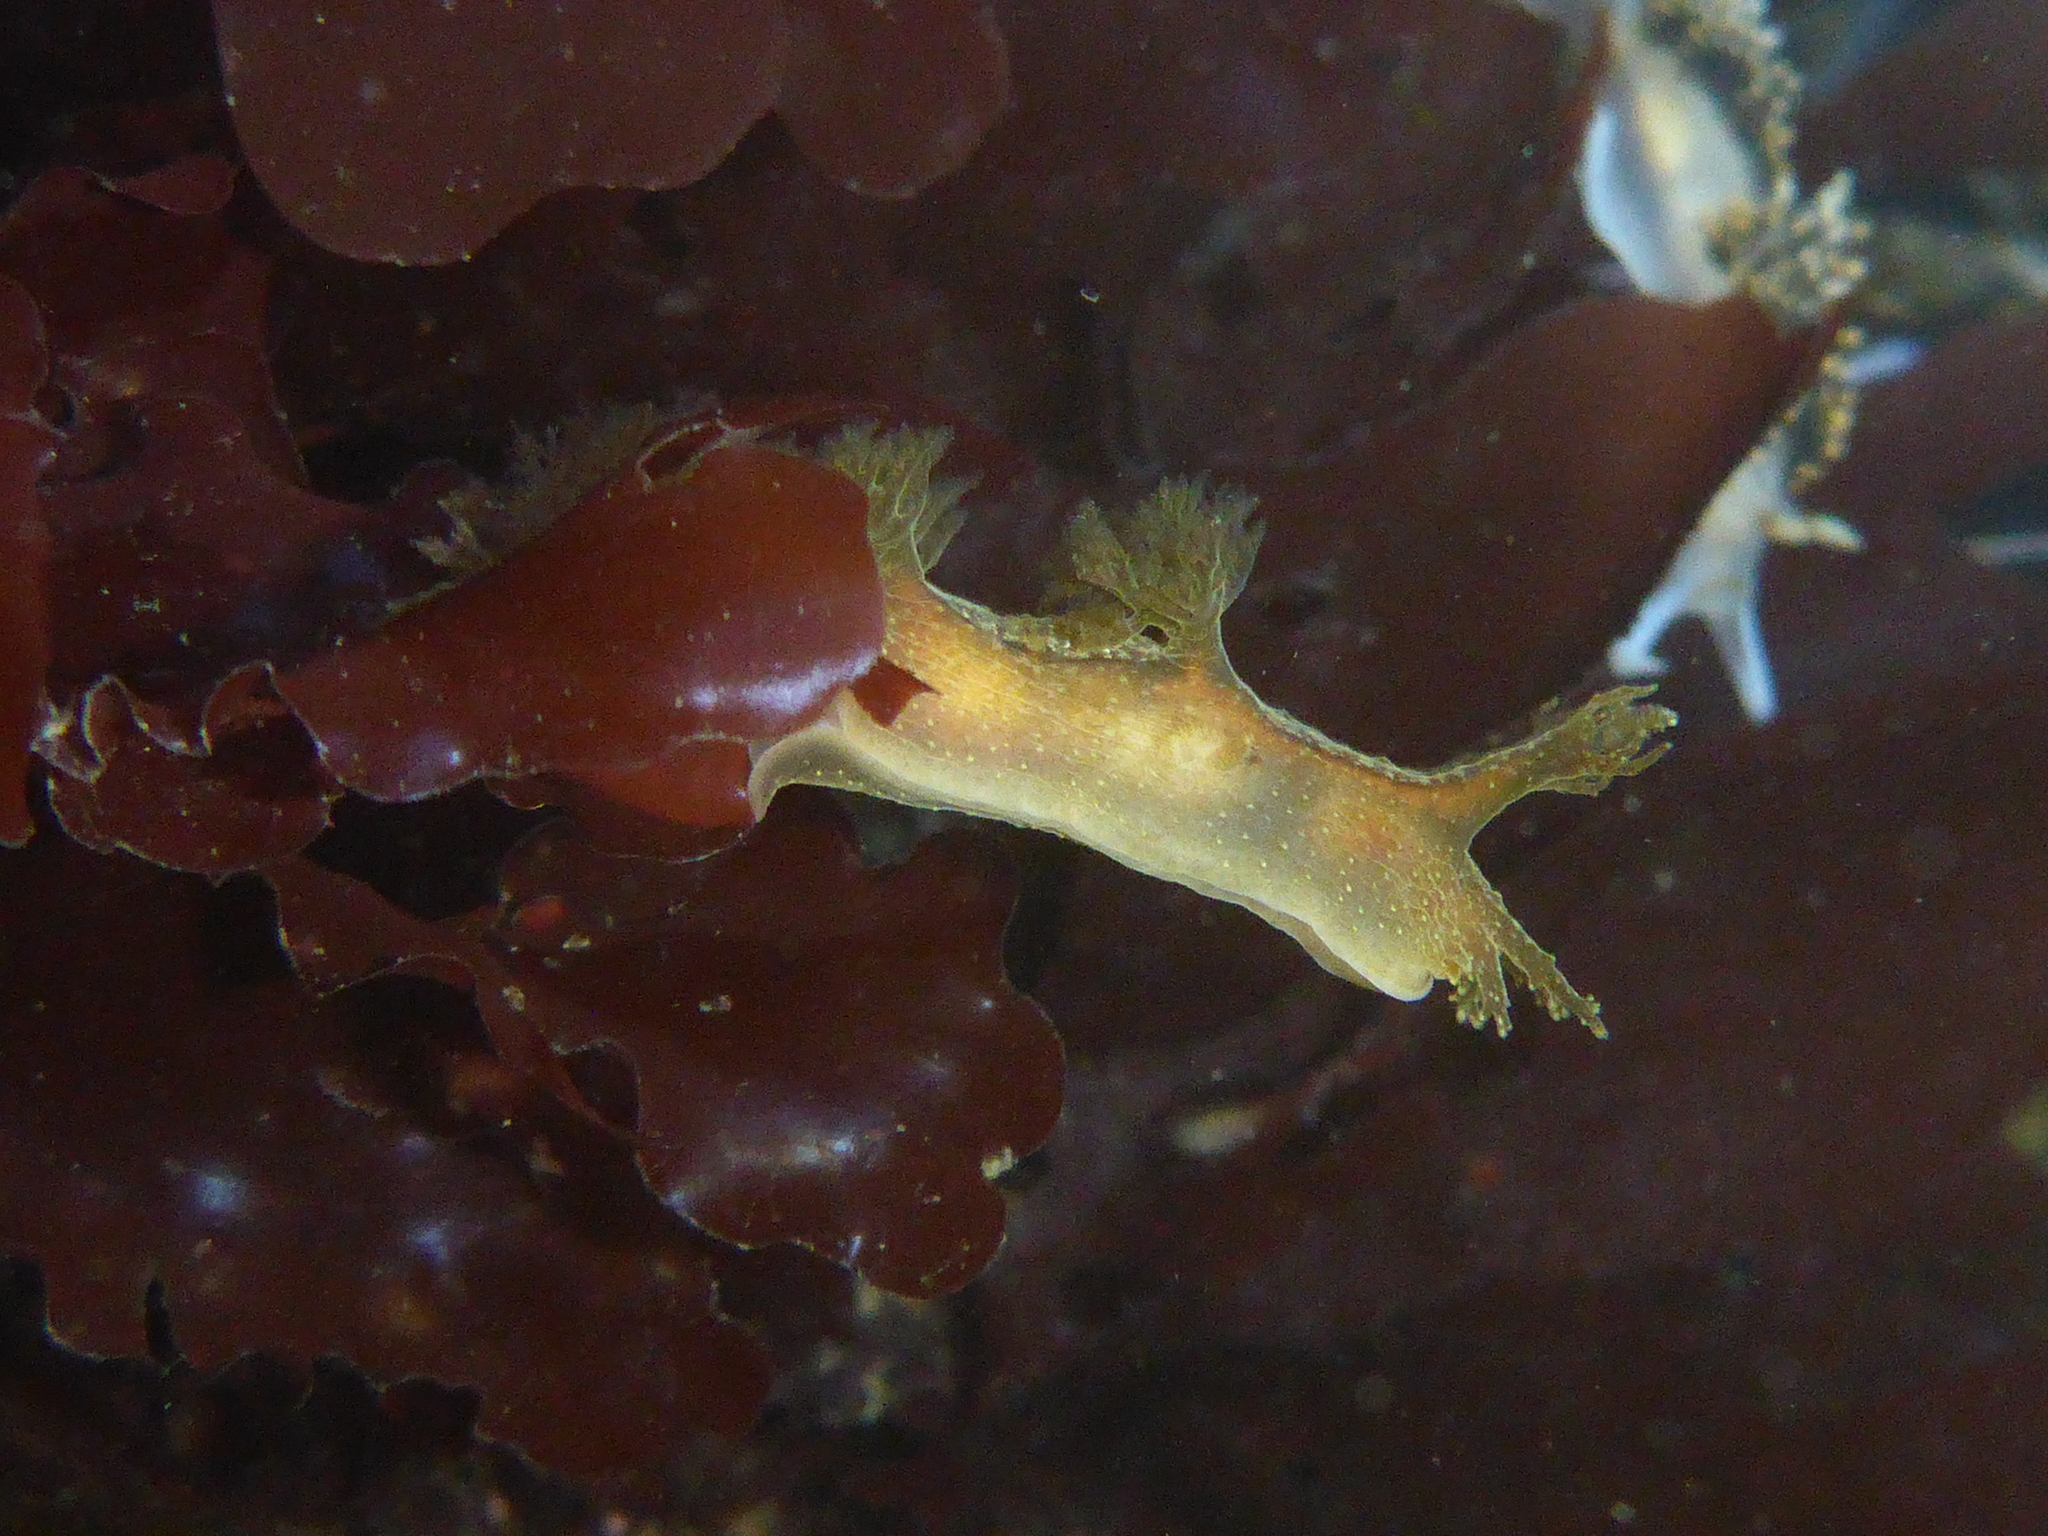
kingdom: Animalia
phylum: Mollusca
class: Gastropoda
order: Nudibranchia
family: Dendronotidae
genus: Dendronotus
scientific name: Dendronotus subramosus
